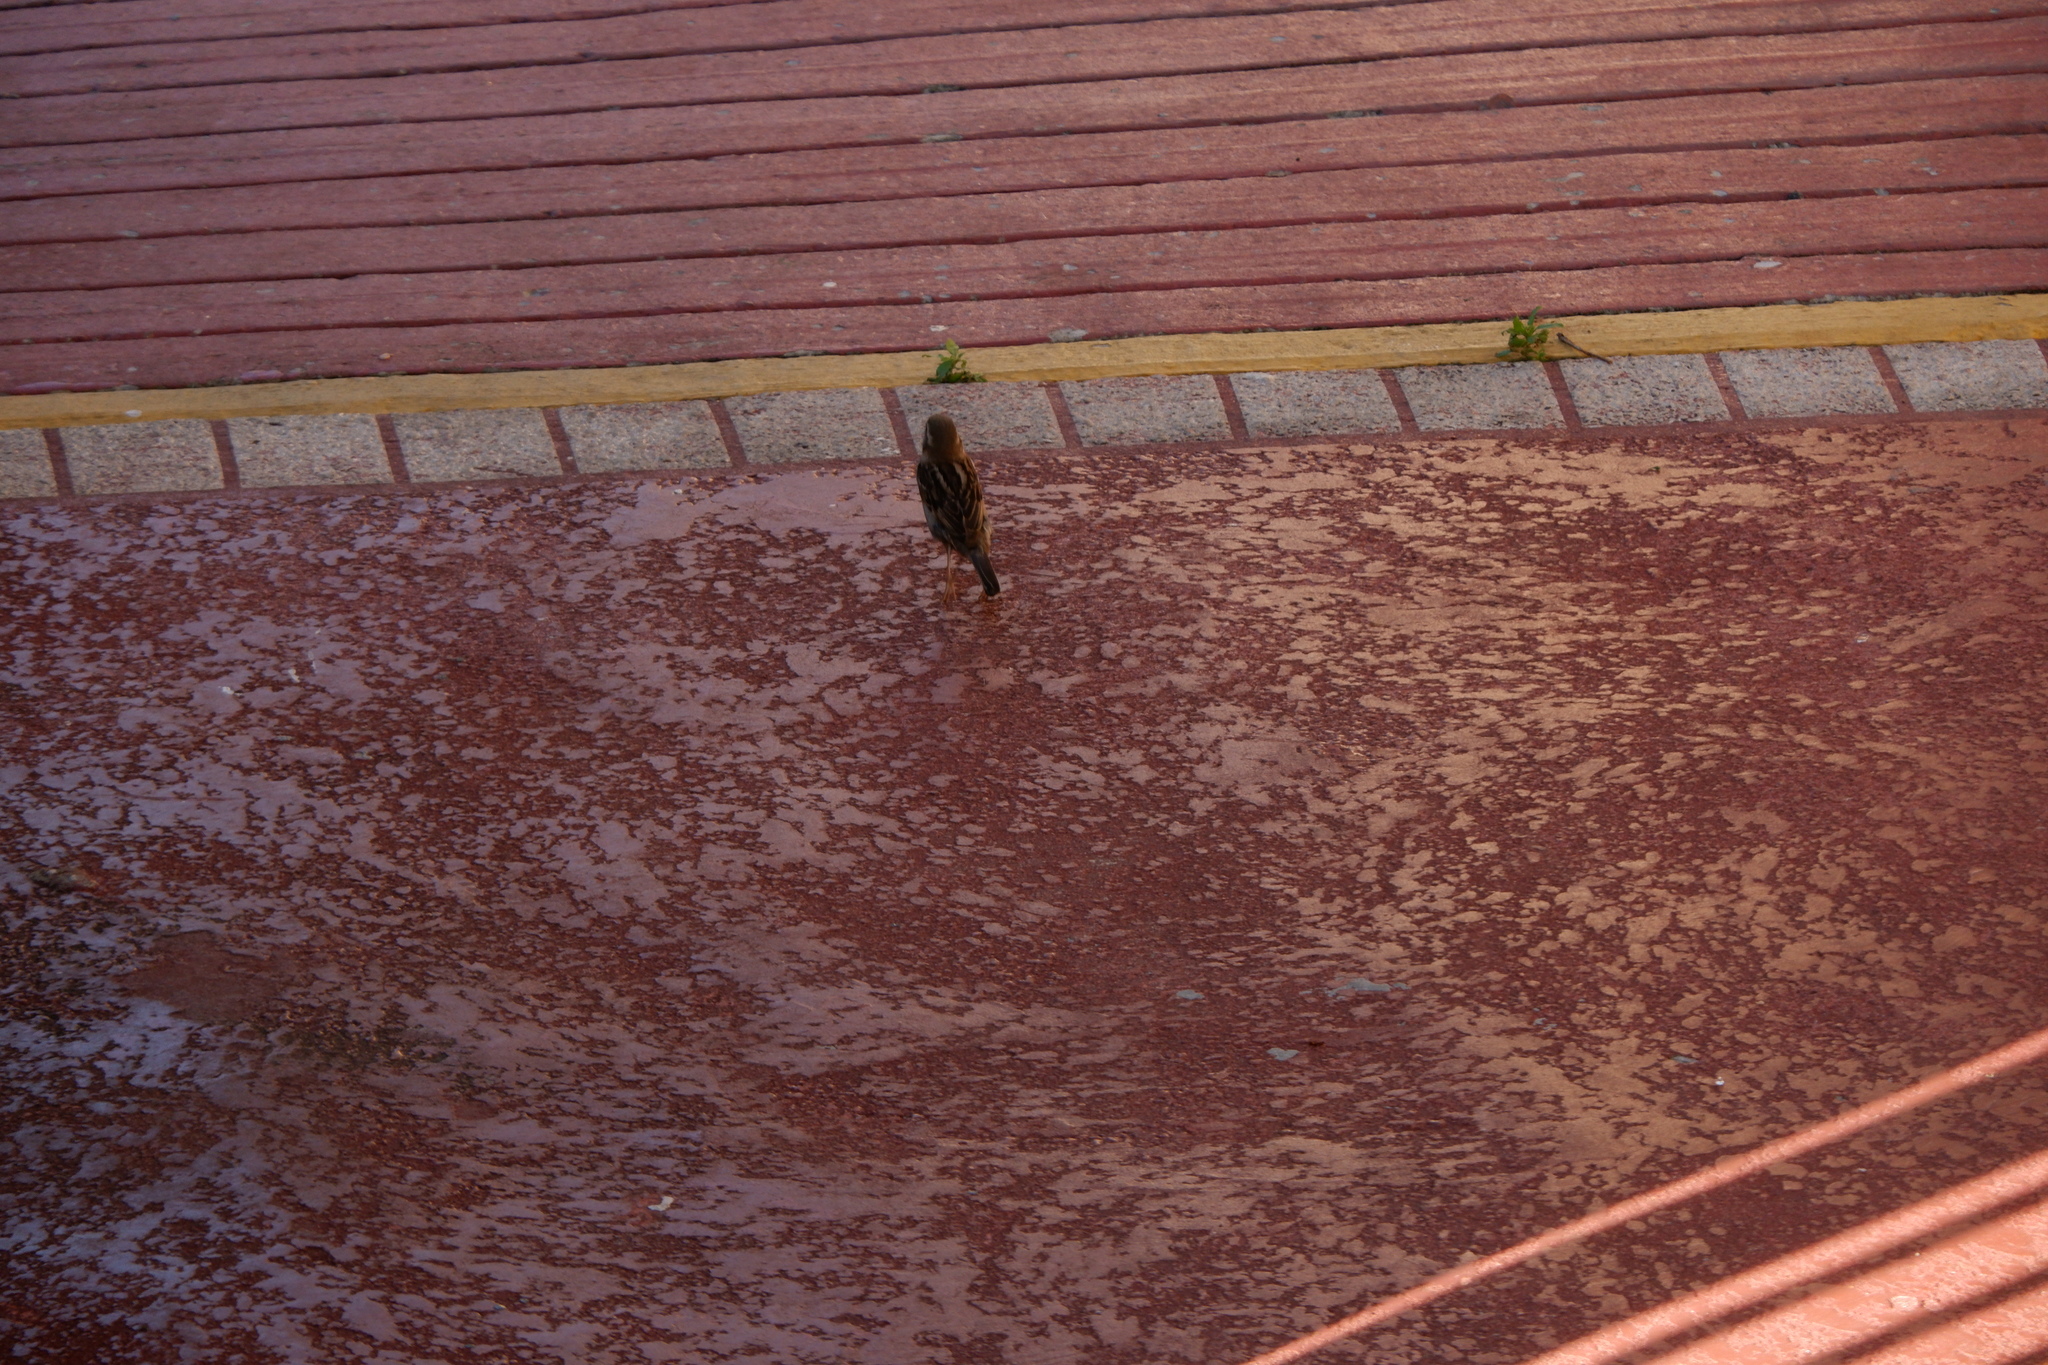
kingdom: Animalia
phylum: Chordata
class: Aves
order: Passeriformes
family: Passeridae
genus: Passer
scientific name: Passer domesticus
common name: House sparrow
